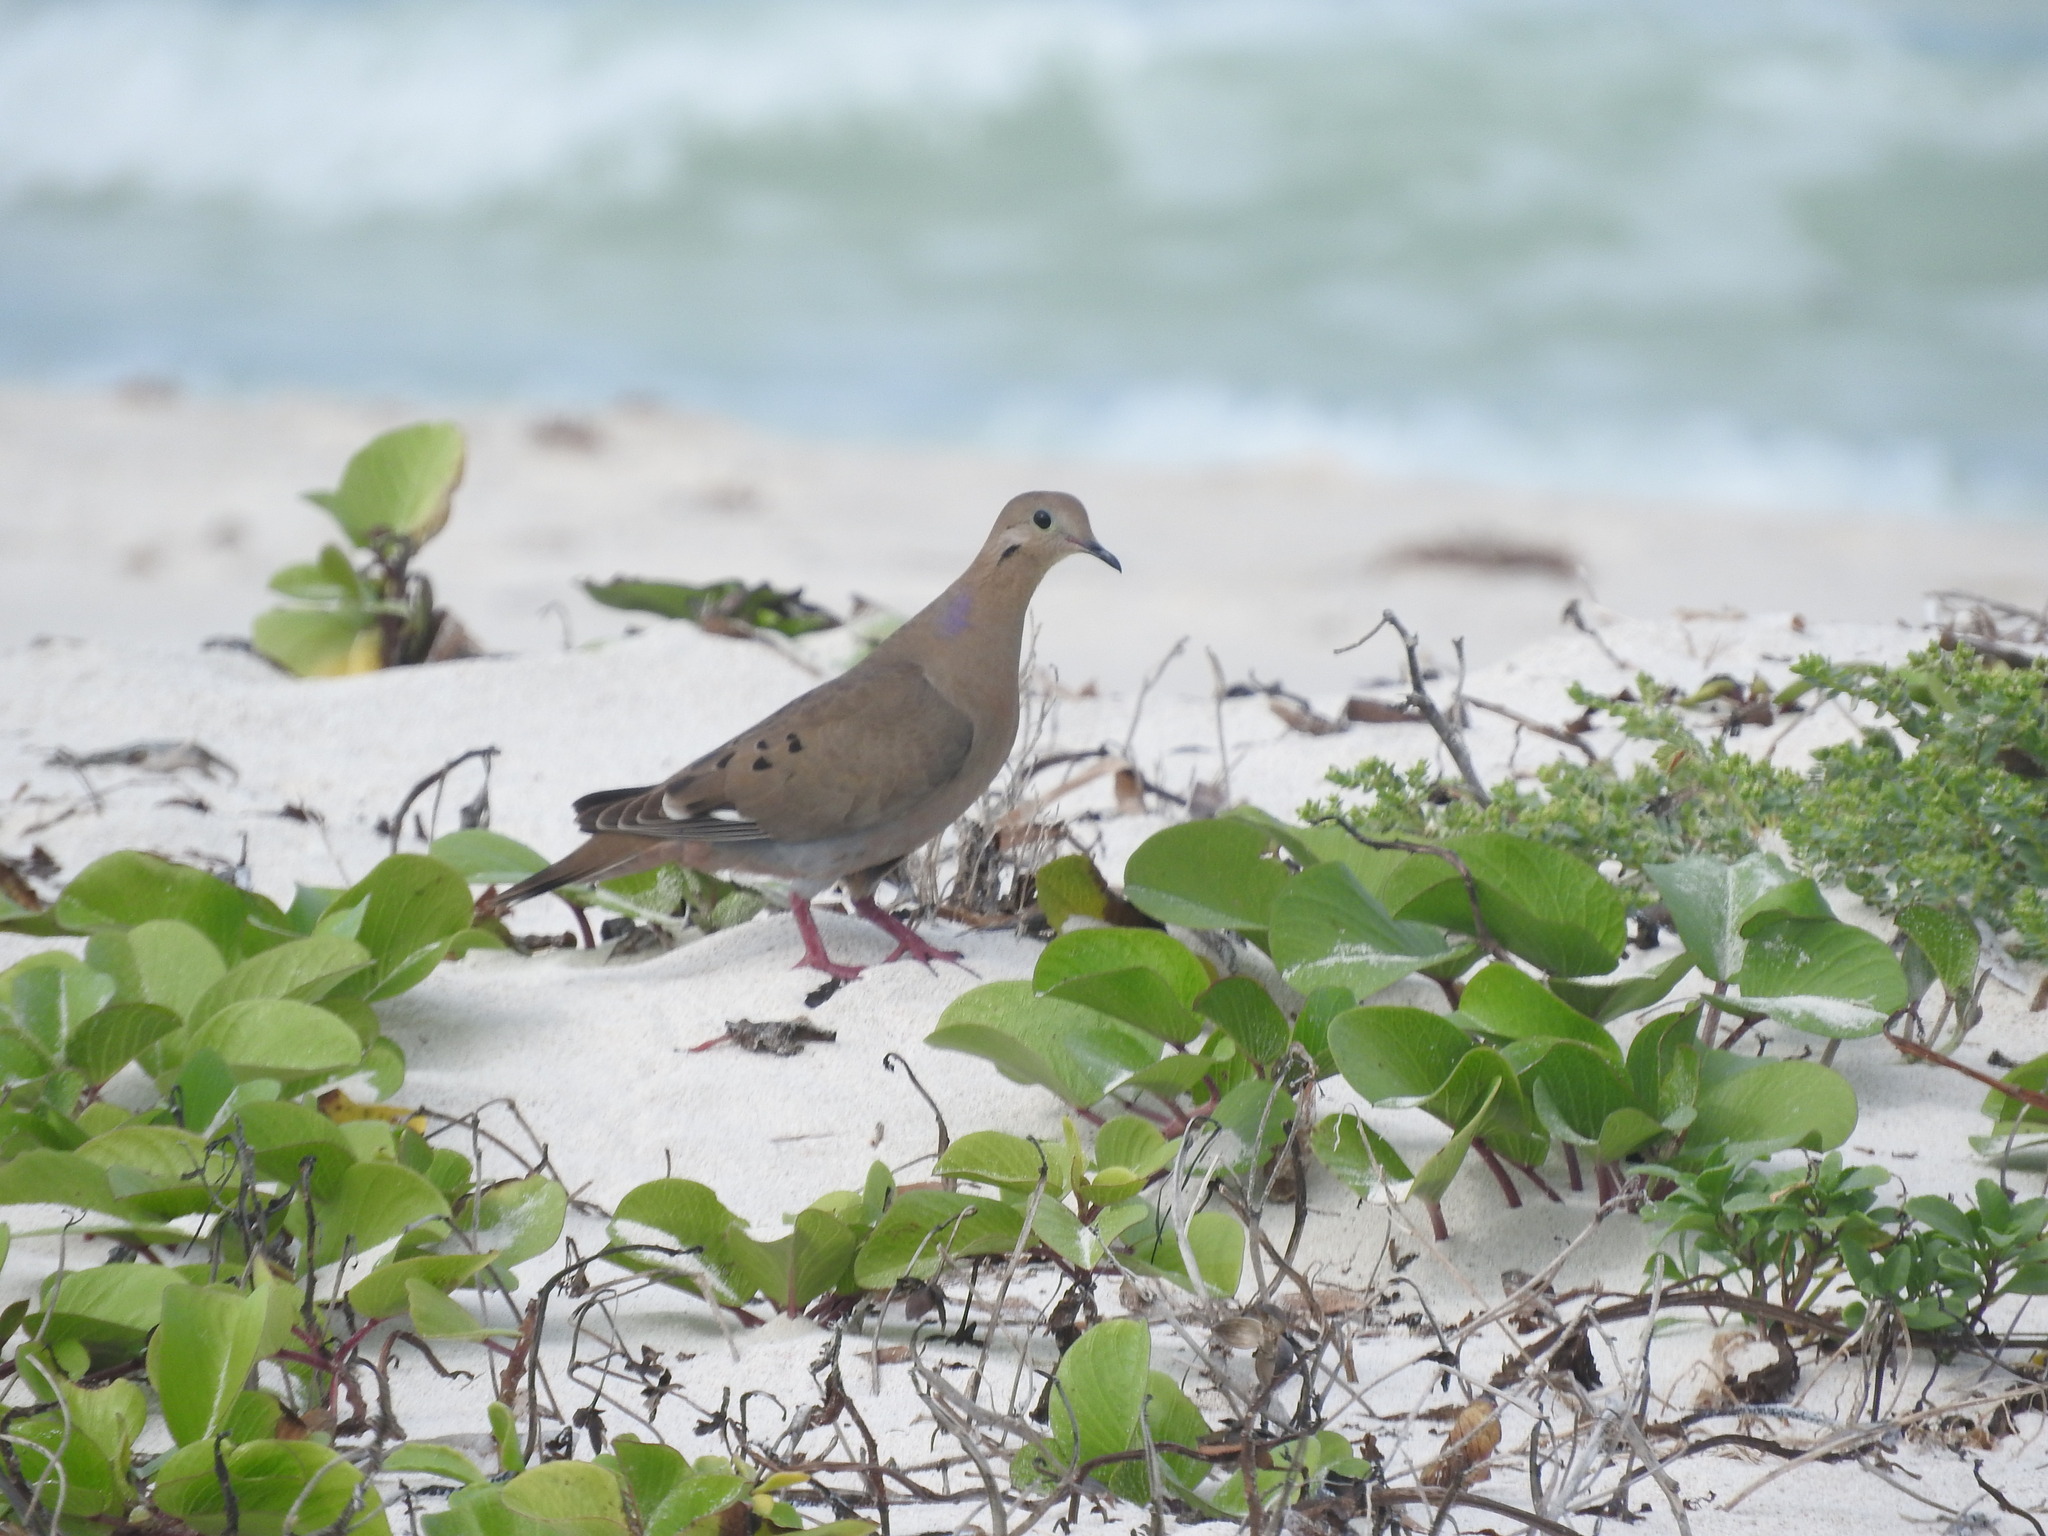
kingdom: Animalia
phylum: Chordata
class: Aves
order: Columbiformes
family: Columbidae
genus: Zenaida
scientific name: Zenaida aurita
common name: Zenaida dove
